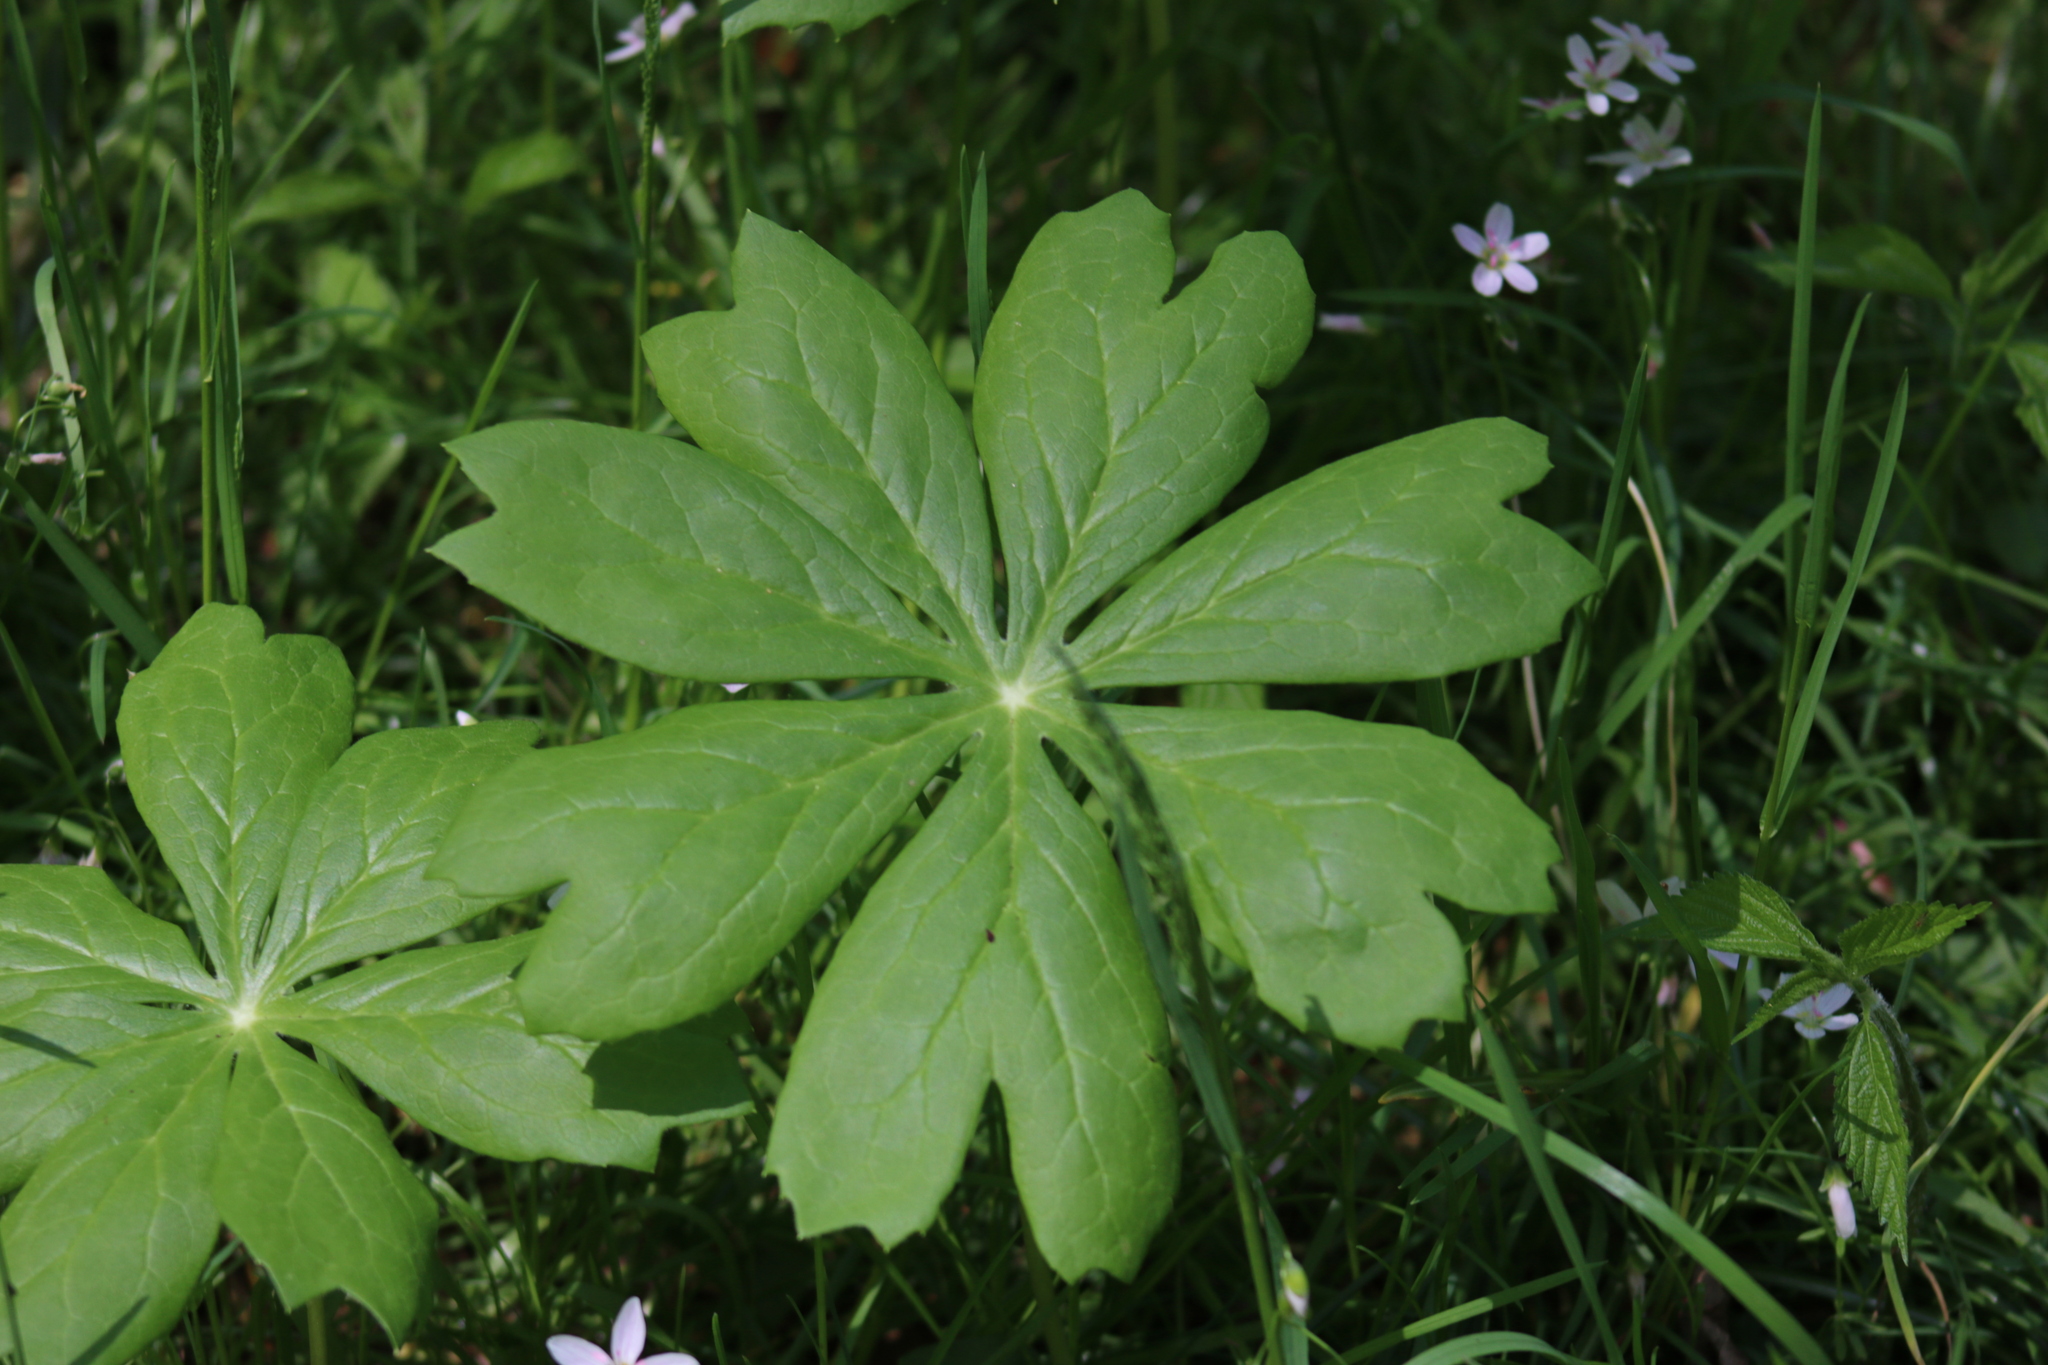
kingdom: Plantae
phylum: Tracheophyta
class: Magnoliopsida
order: Ranunculales
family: Berberidaceae
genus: Podophyllum
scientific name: Podophyllum peltatum
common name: Wild mandrake
